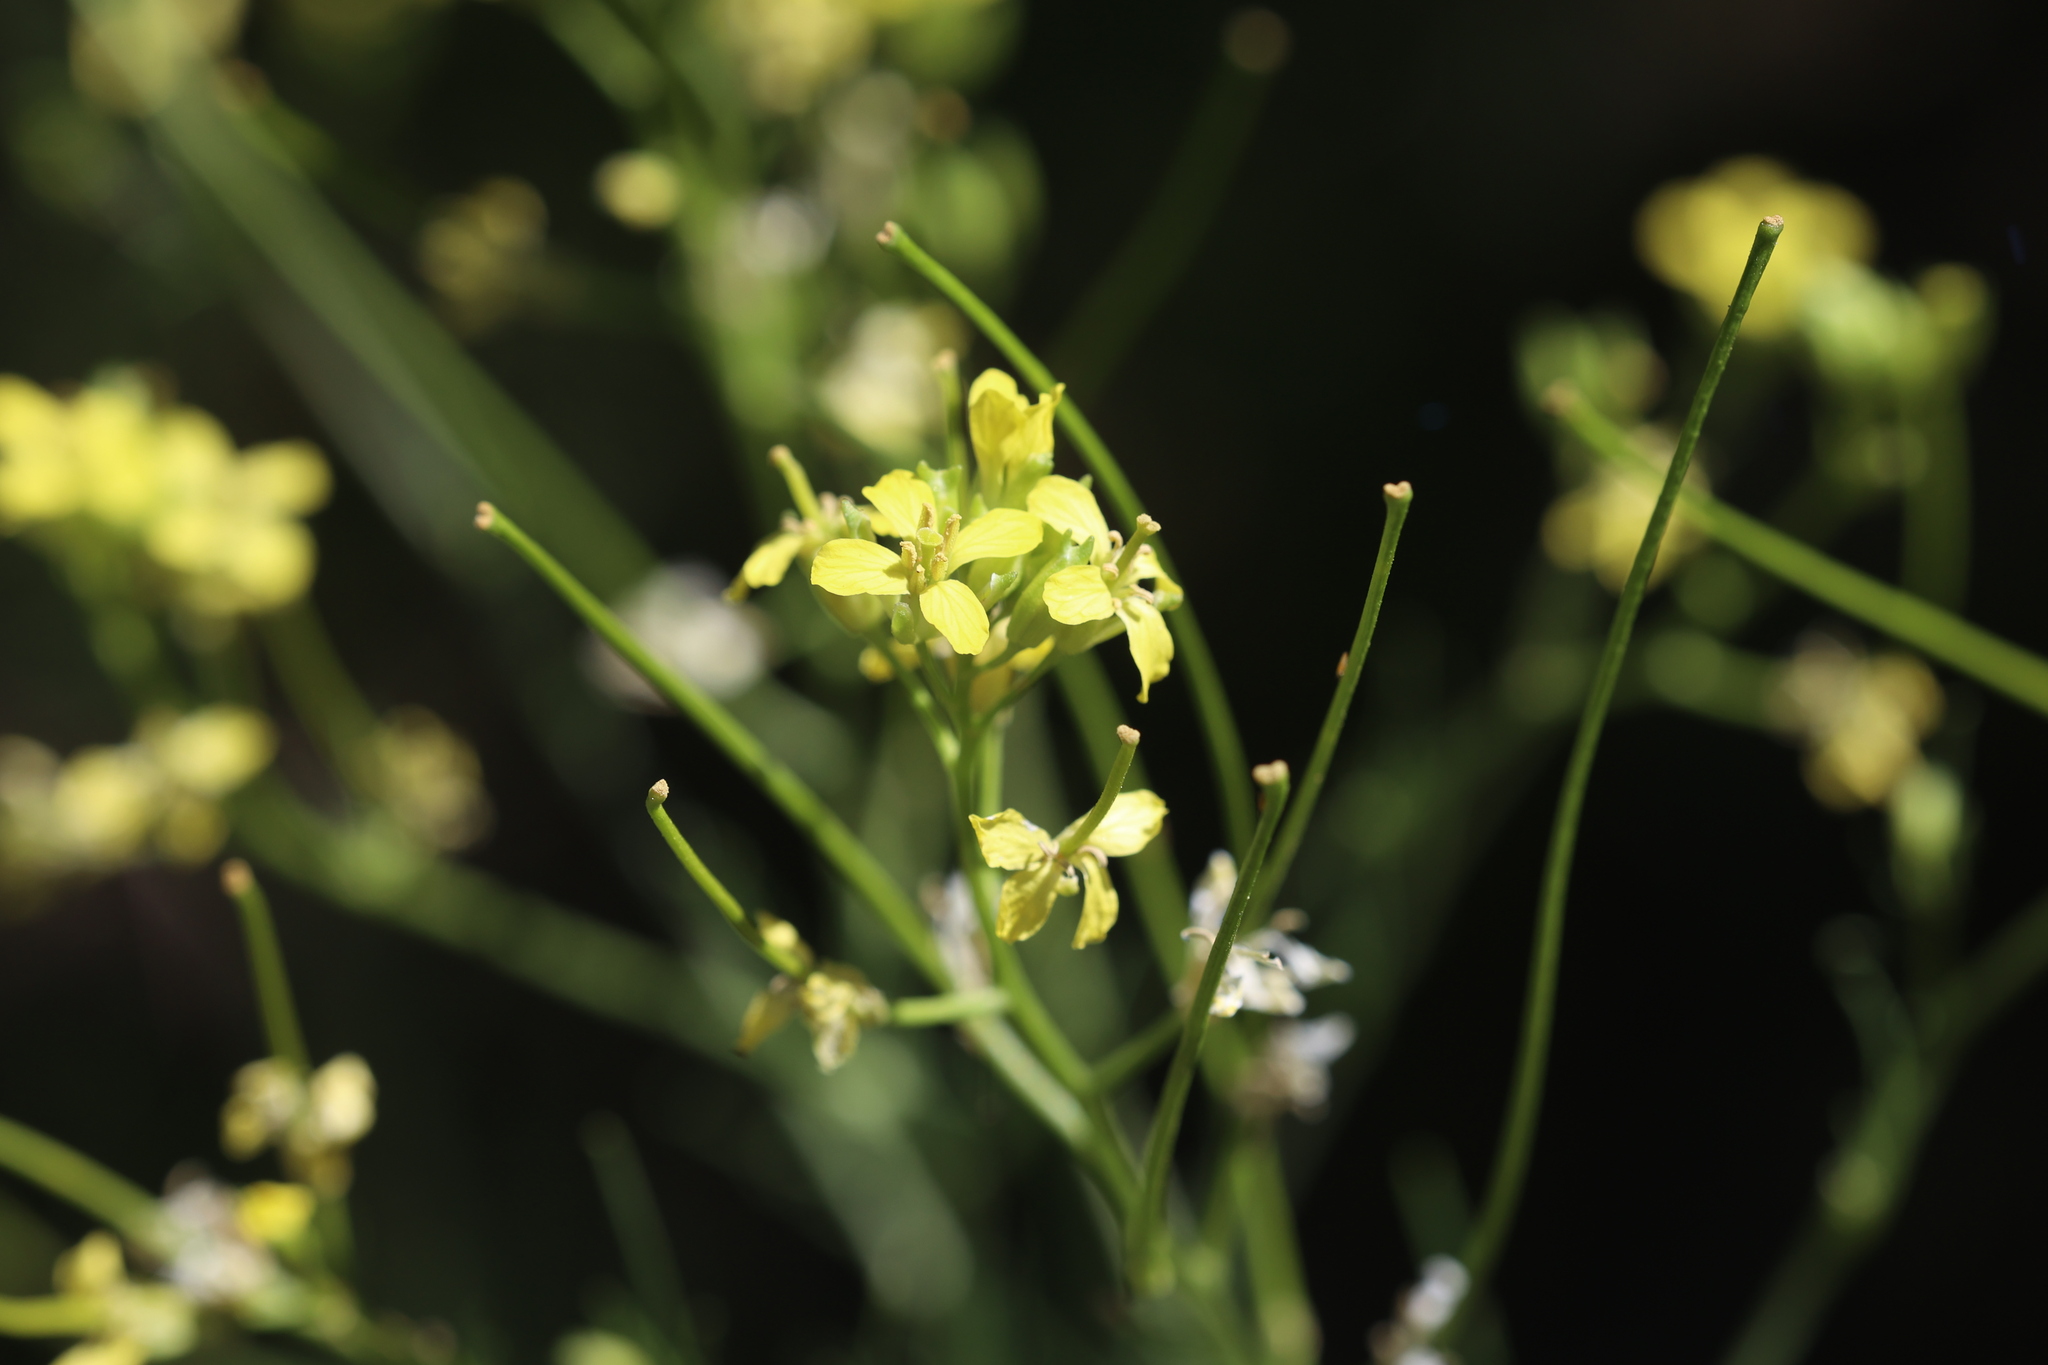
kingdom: Plantae
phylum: Tracheophyta
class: Magnoliopsida
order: Brassicales
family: Brassicaceae
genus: Sisymbrium
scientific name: Sisymbrium altissimum
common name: Tall rocket
